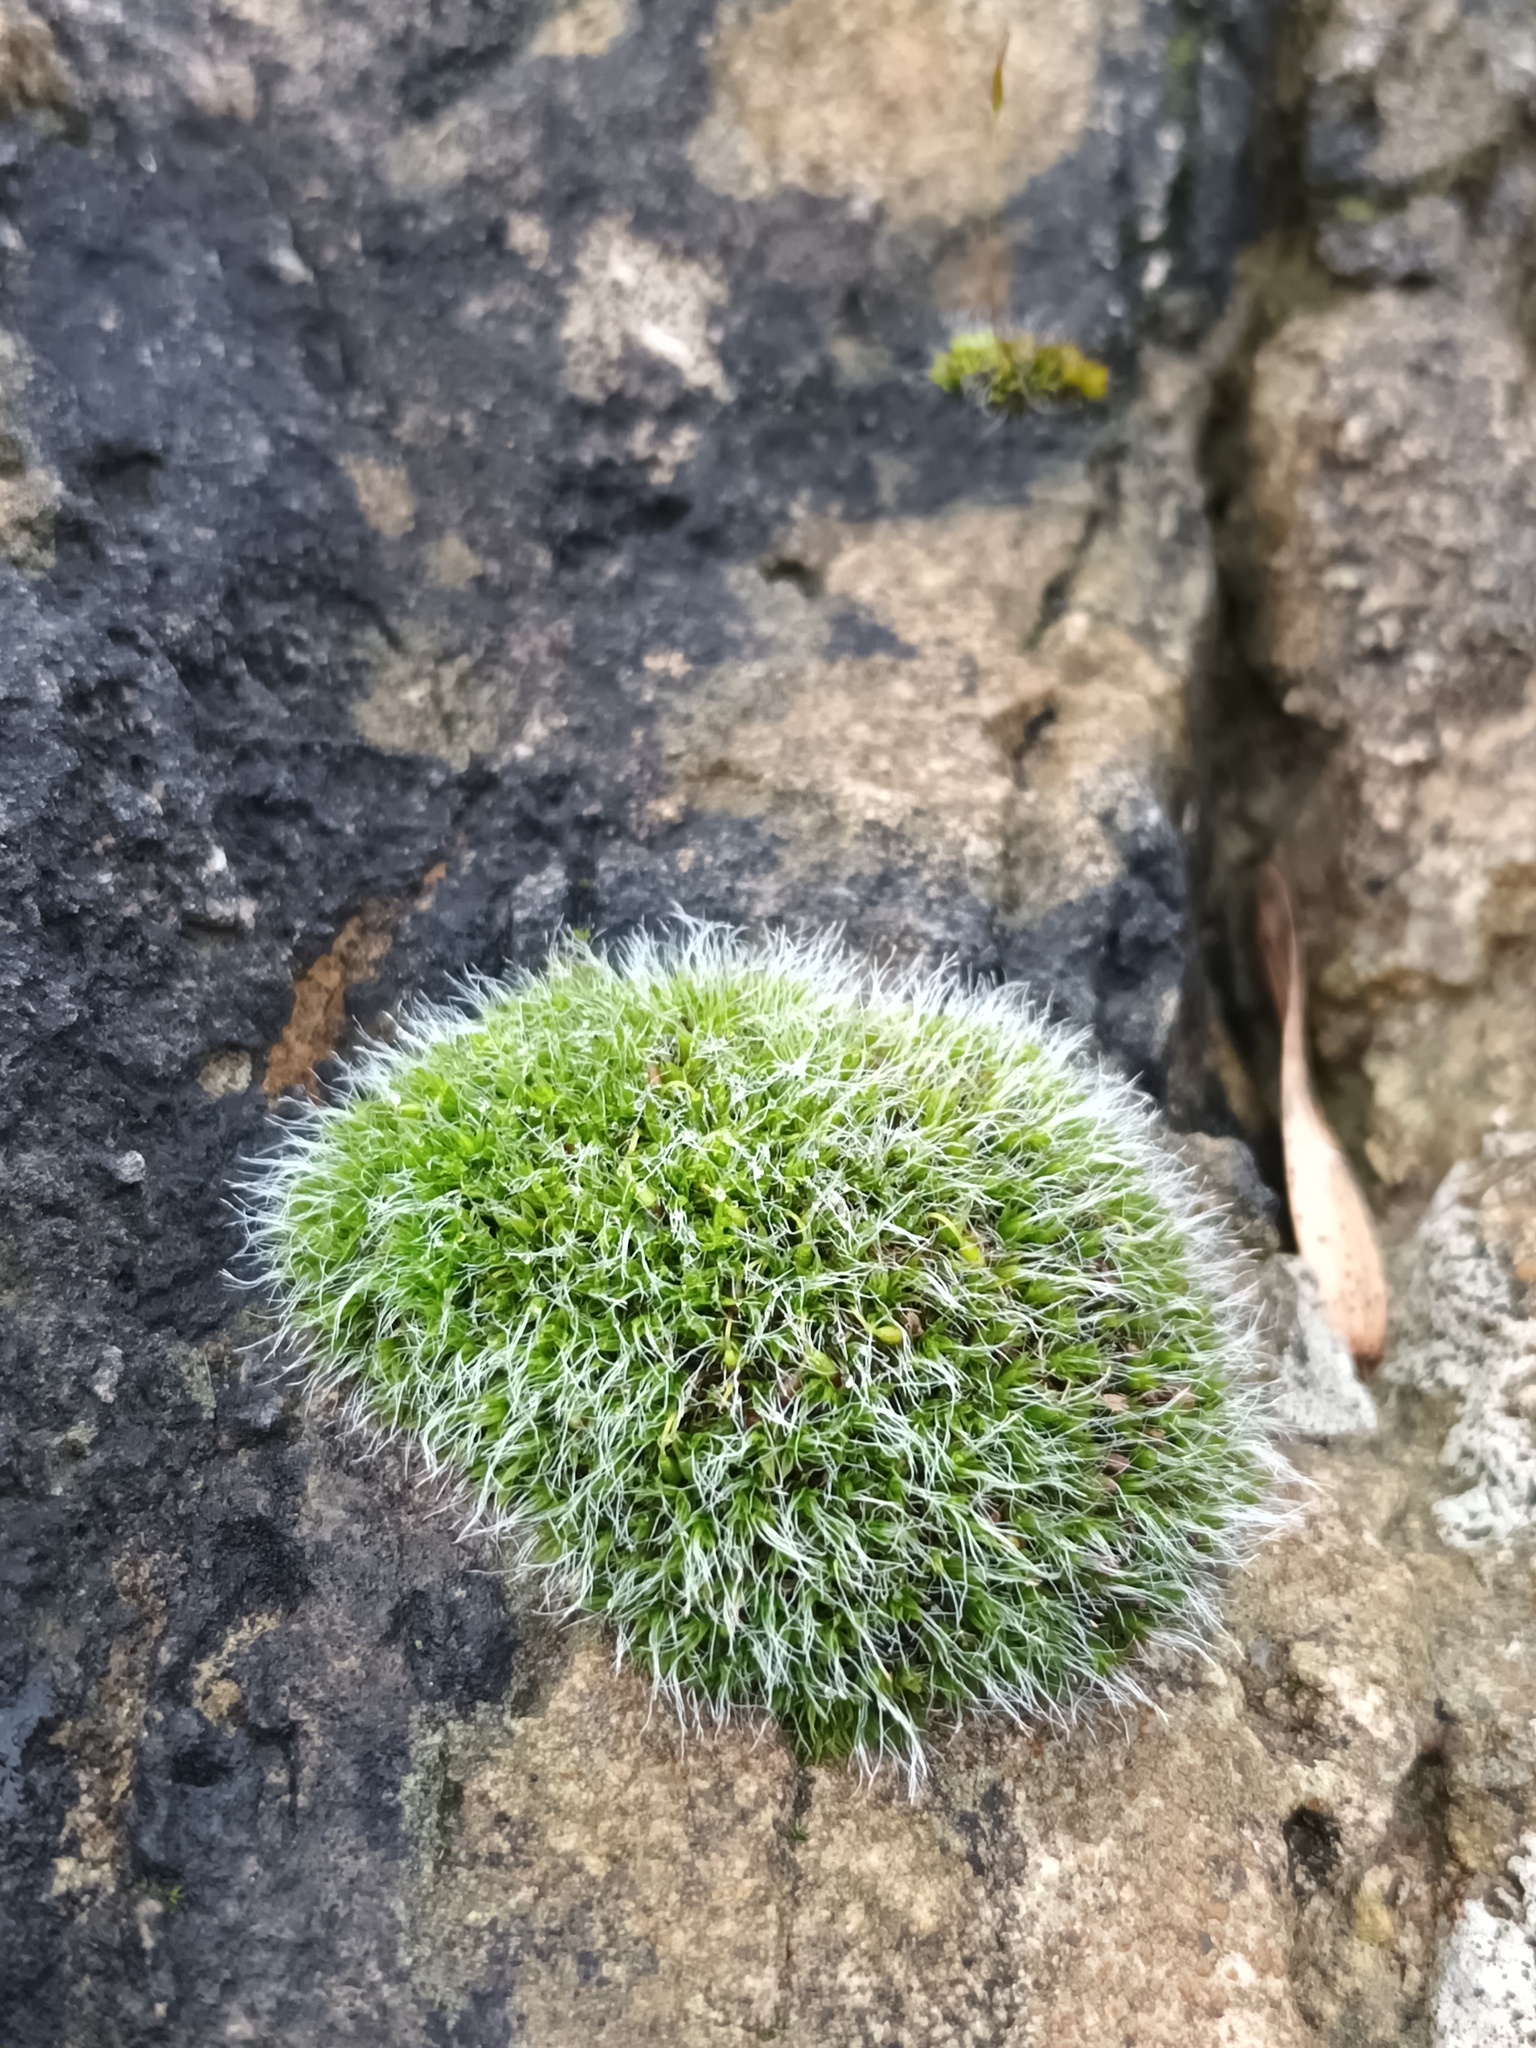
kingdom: Plantae
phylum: Bryophyta
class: Bryopsida
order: Grimmiales
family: Grimmiaceae
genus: Grimmia
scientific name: Grimmia pulvinata
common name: Grey-cushioned grimmia
